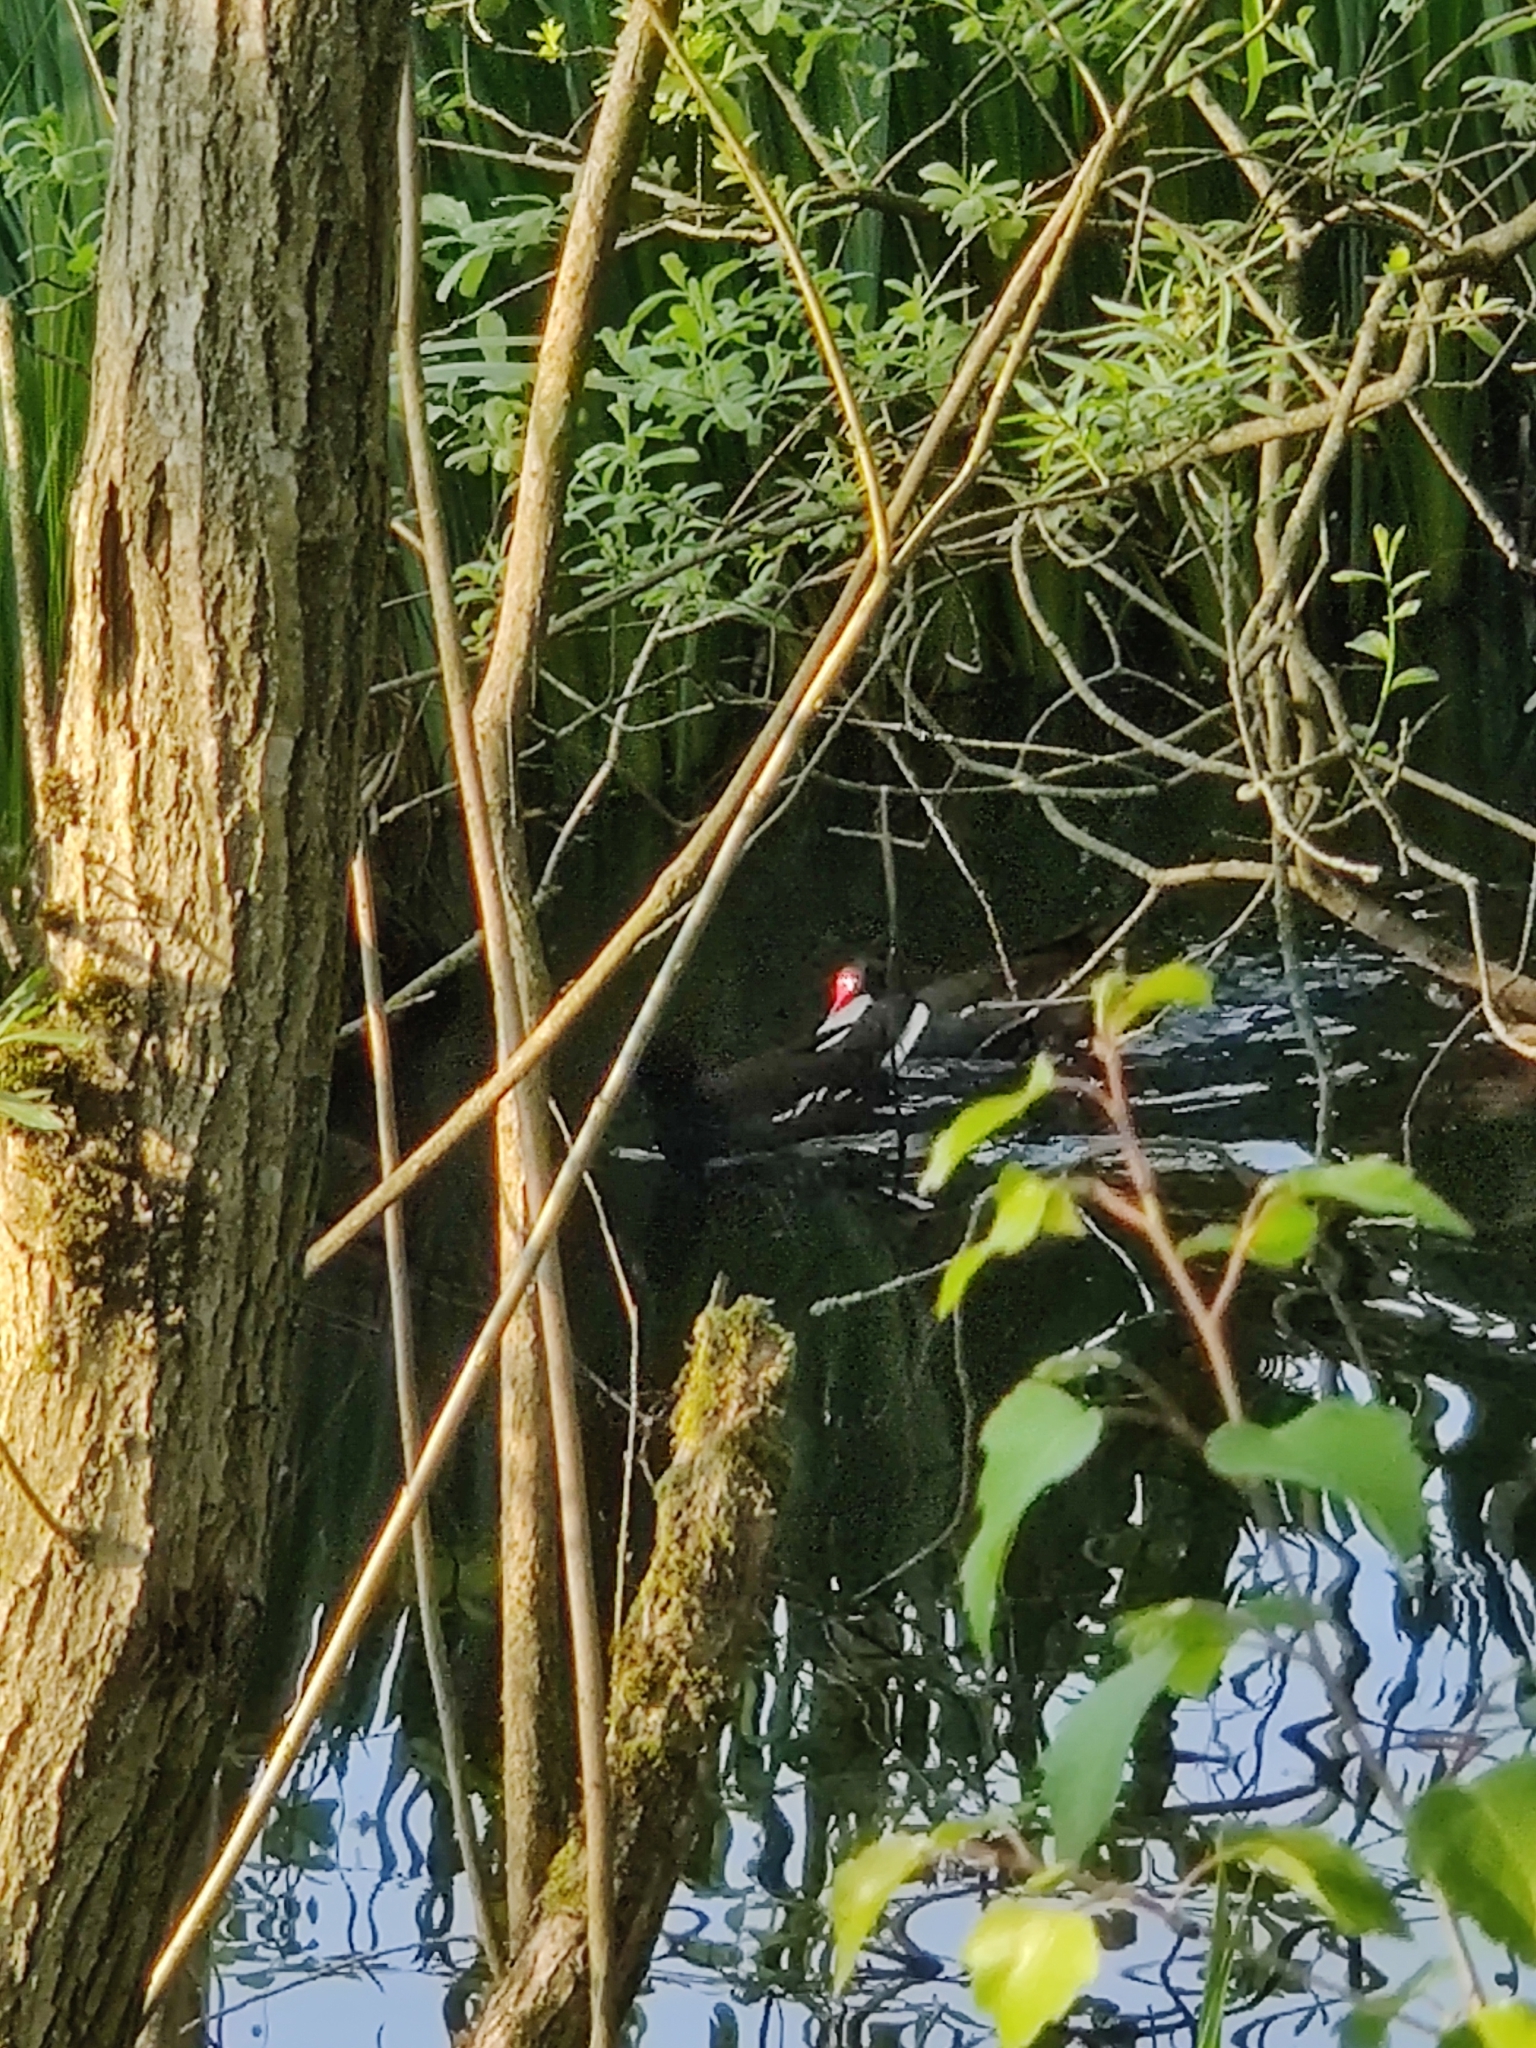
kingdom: Animalia
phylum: Chordata
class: Aves
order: Gruiformes
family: Rallidae
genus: Gallinula
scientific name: Gallinula chloropus
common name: Common moorhen
